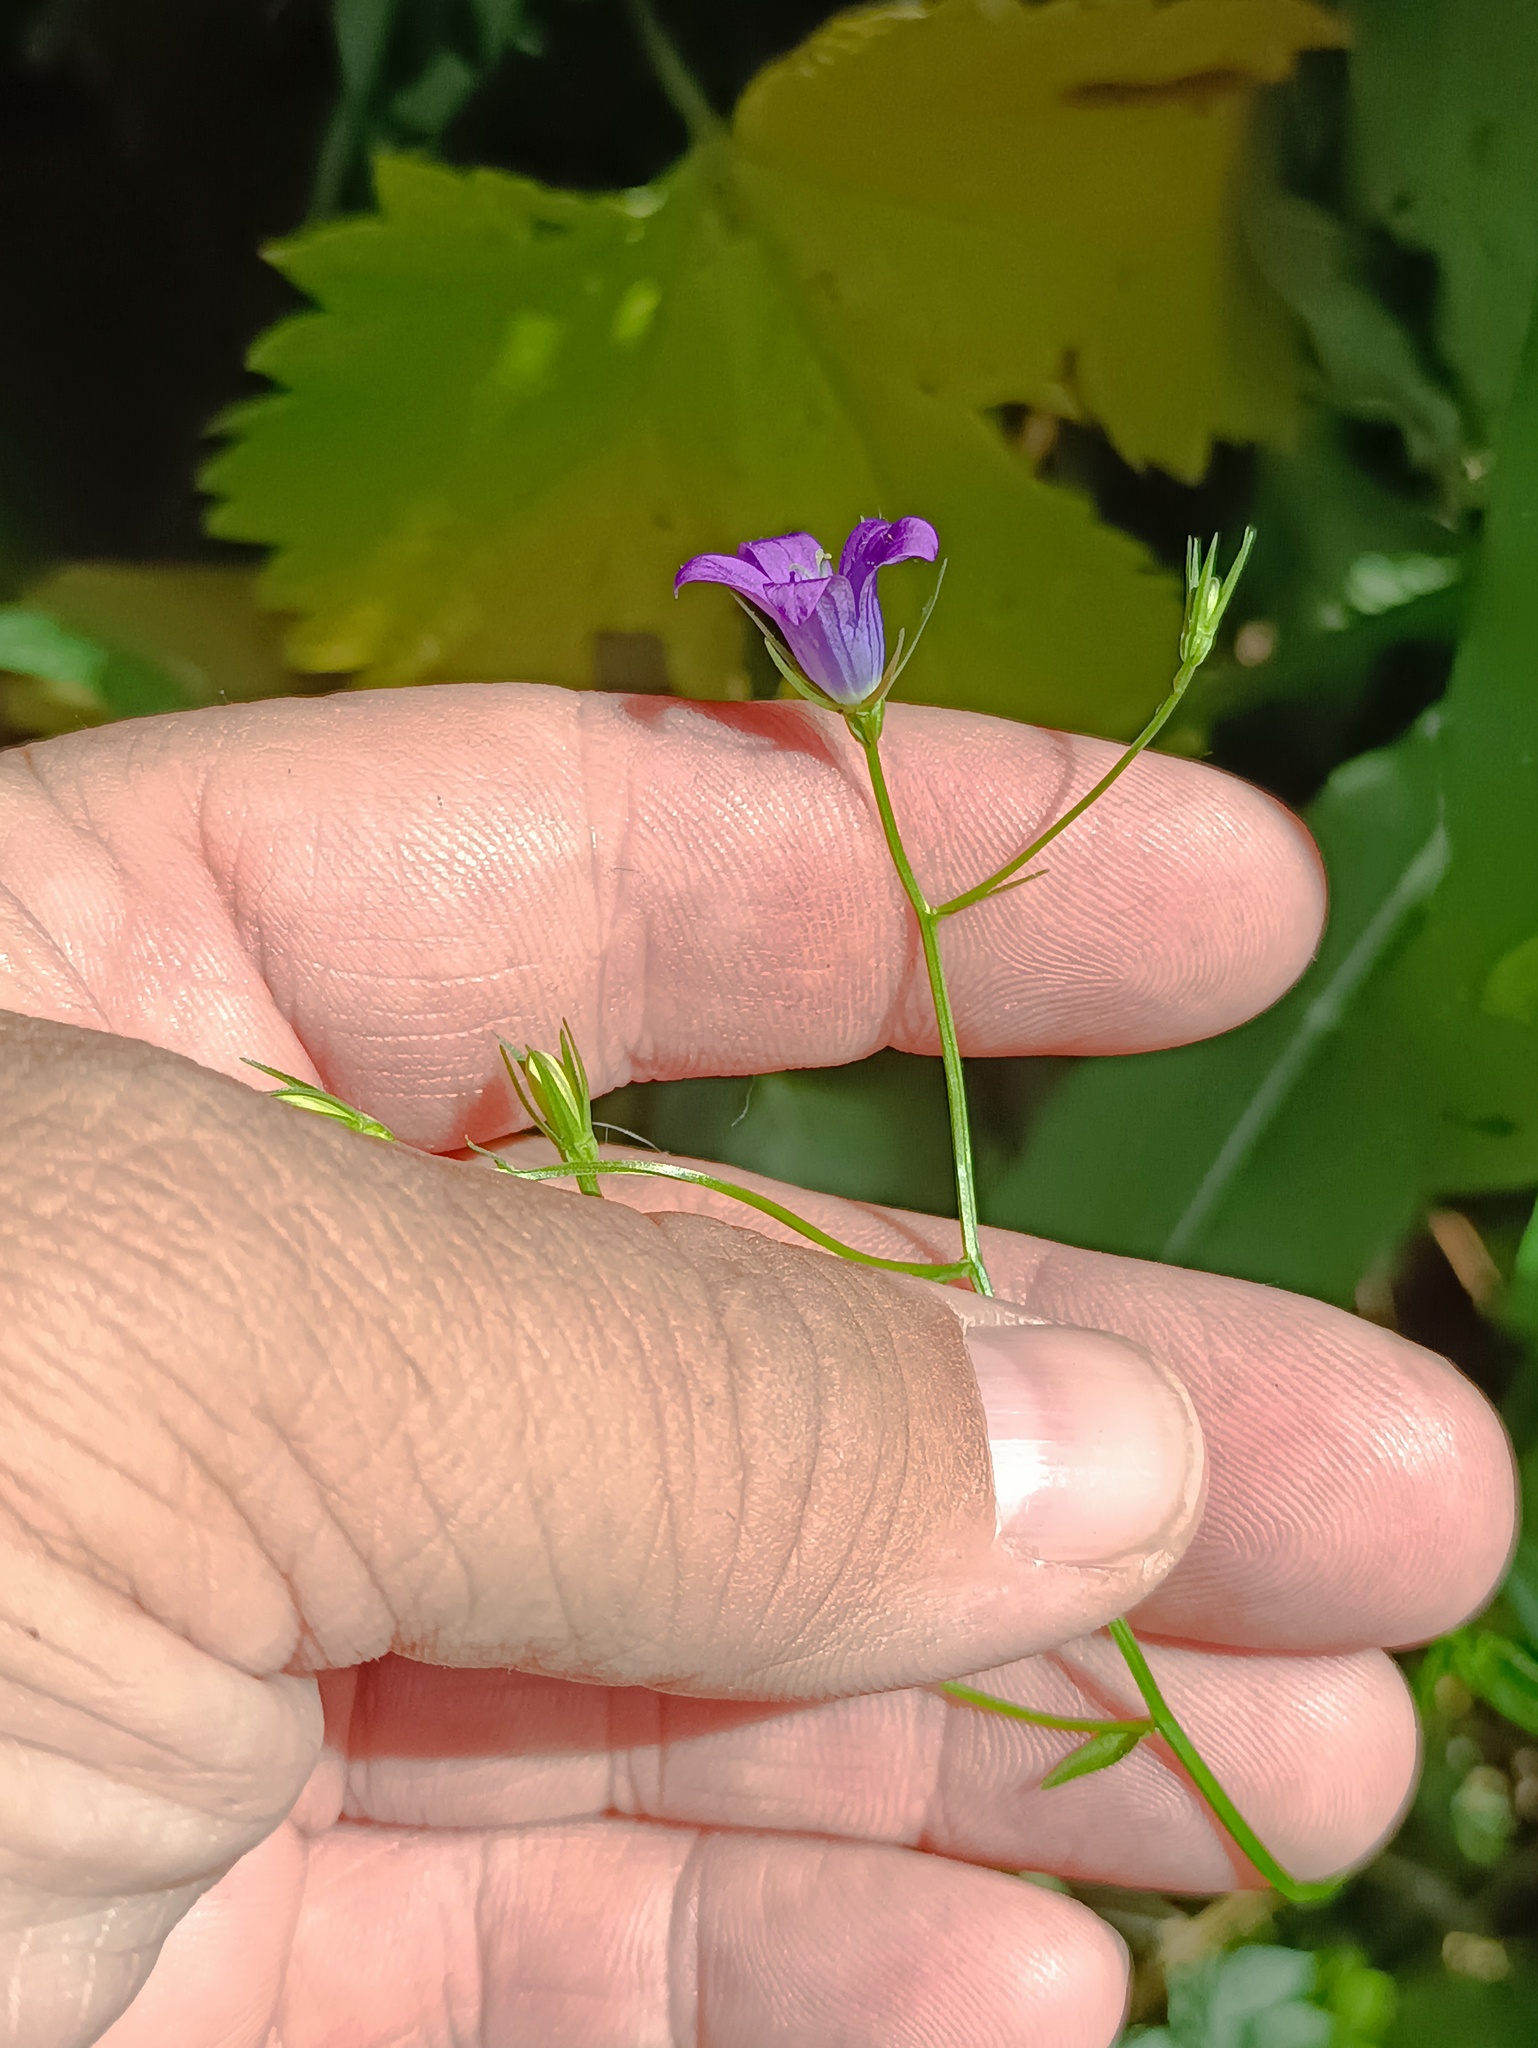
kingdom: Plantae
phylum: Tracheophyta
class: Magnoliopsida
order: Asterales
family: Campanulaceae
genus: Campanula
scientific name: Campanula patula
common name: Spreading bellflower
